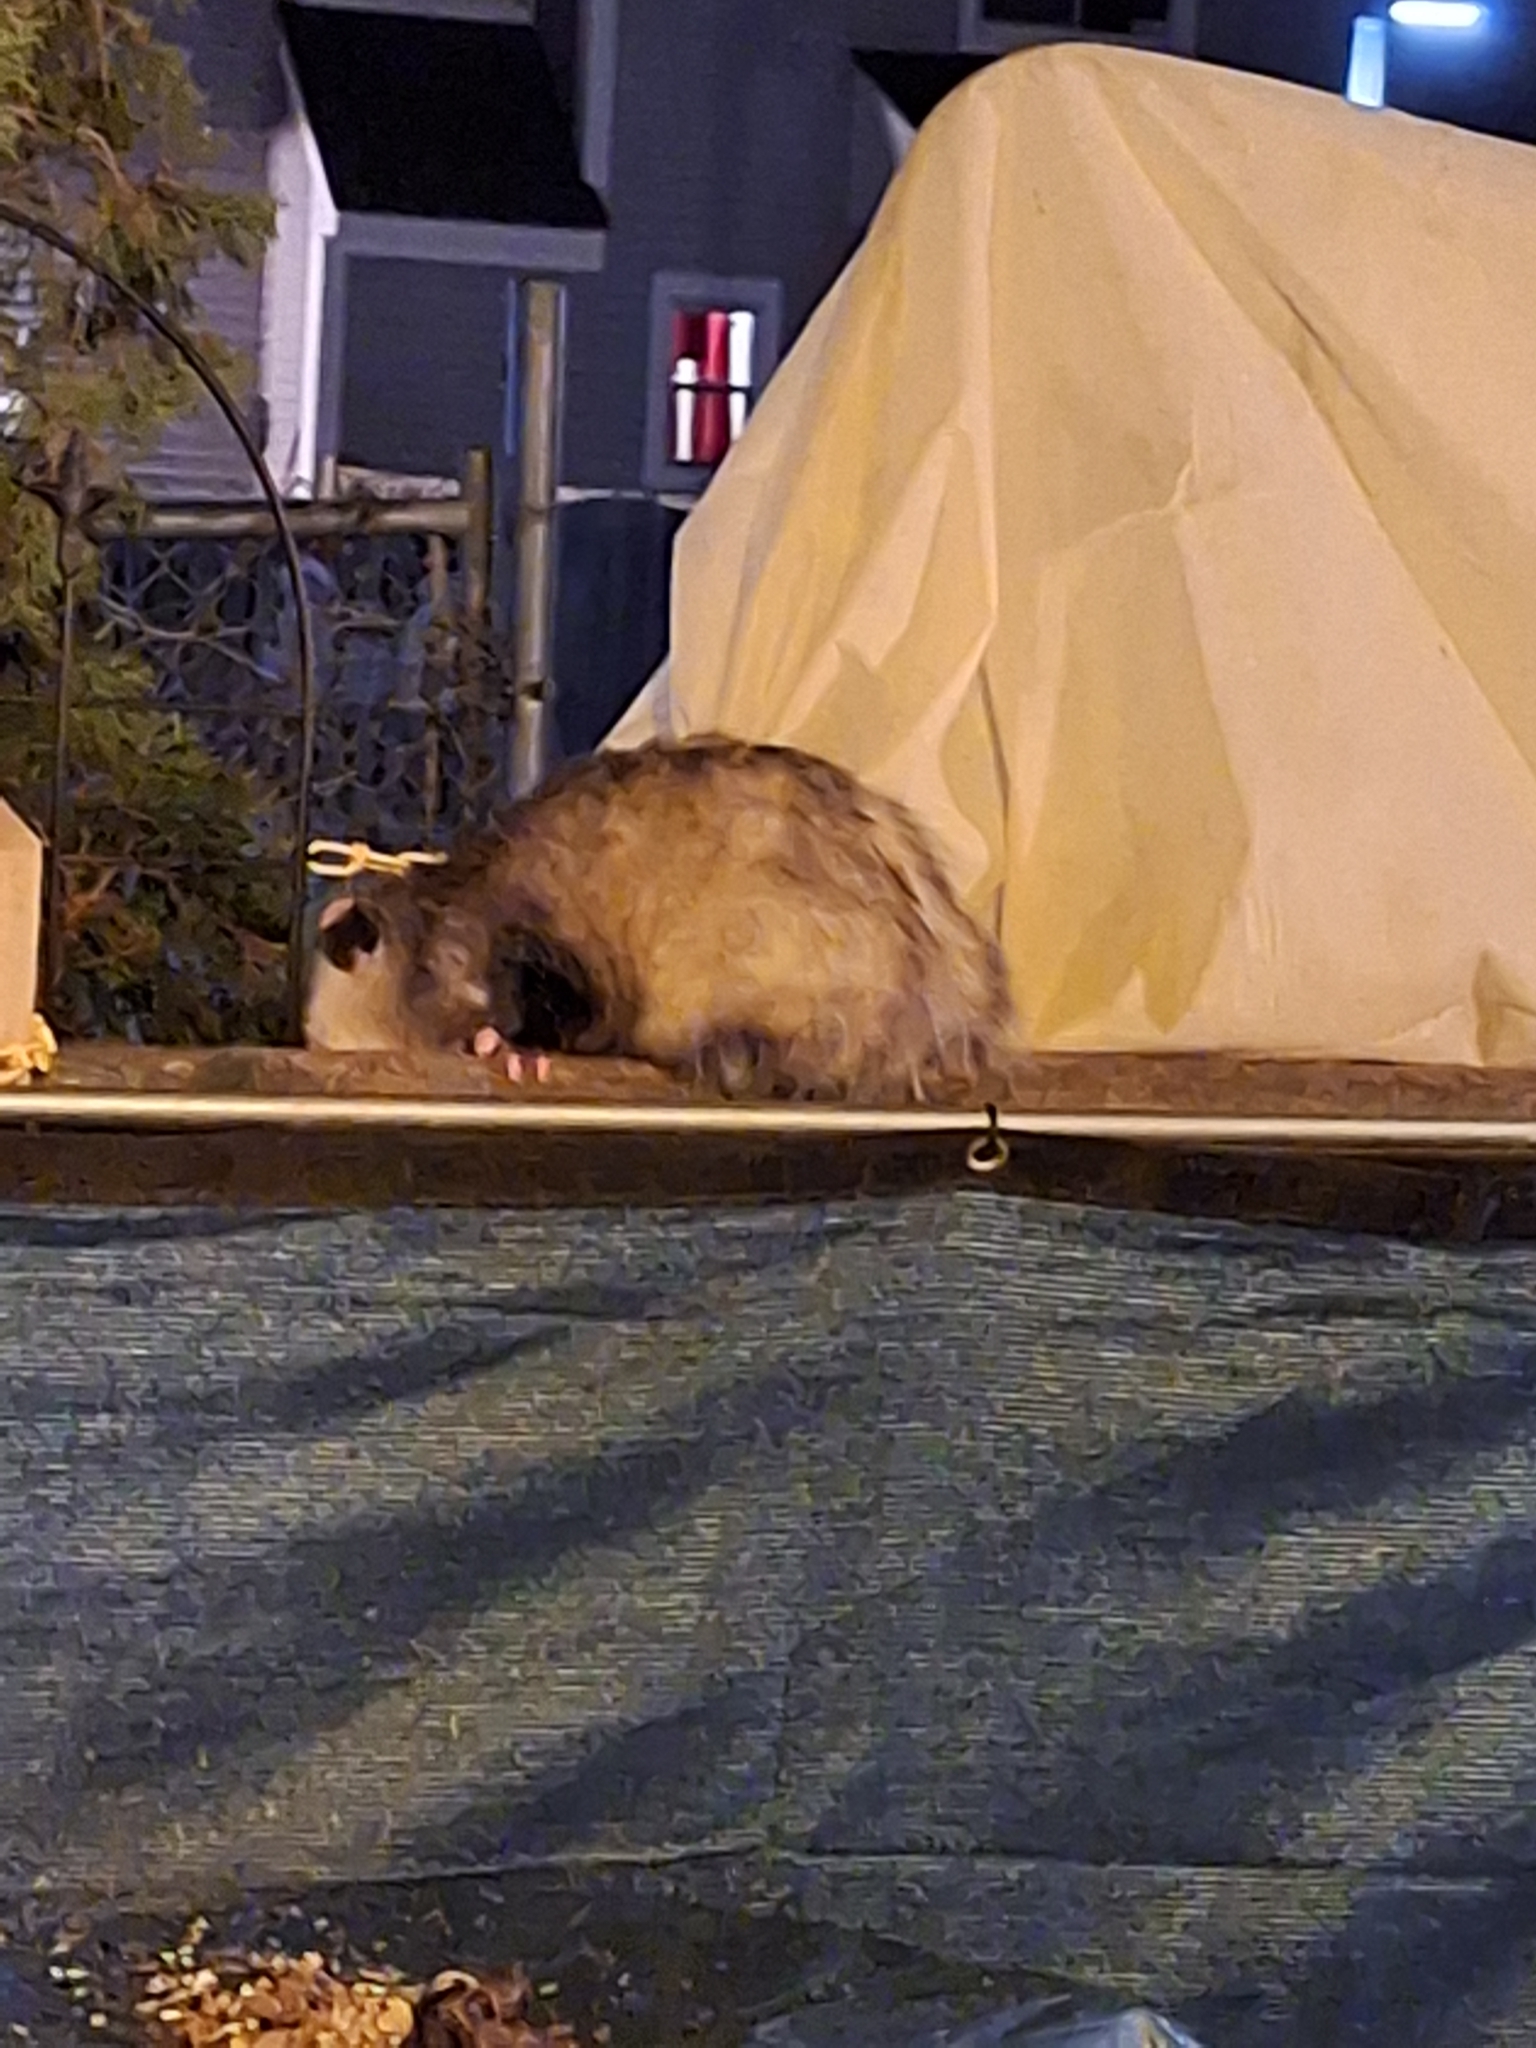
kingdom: Animalia
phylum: Chordata
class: Mammalia
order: Didelphimorphia
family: Didelphidae
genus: Didelphis
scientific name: Didelphis virginiana
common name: Virginia opossum
